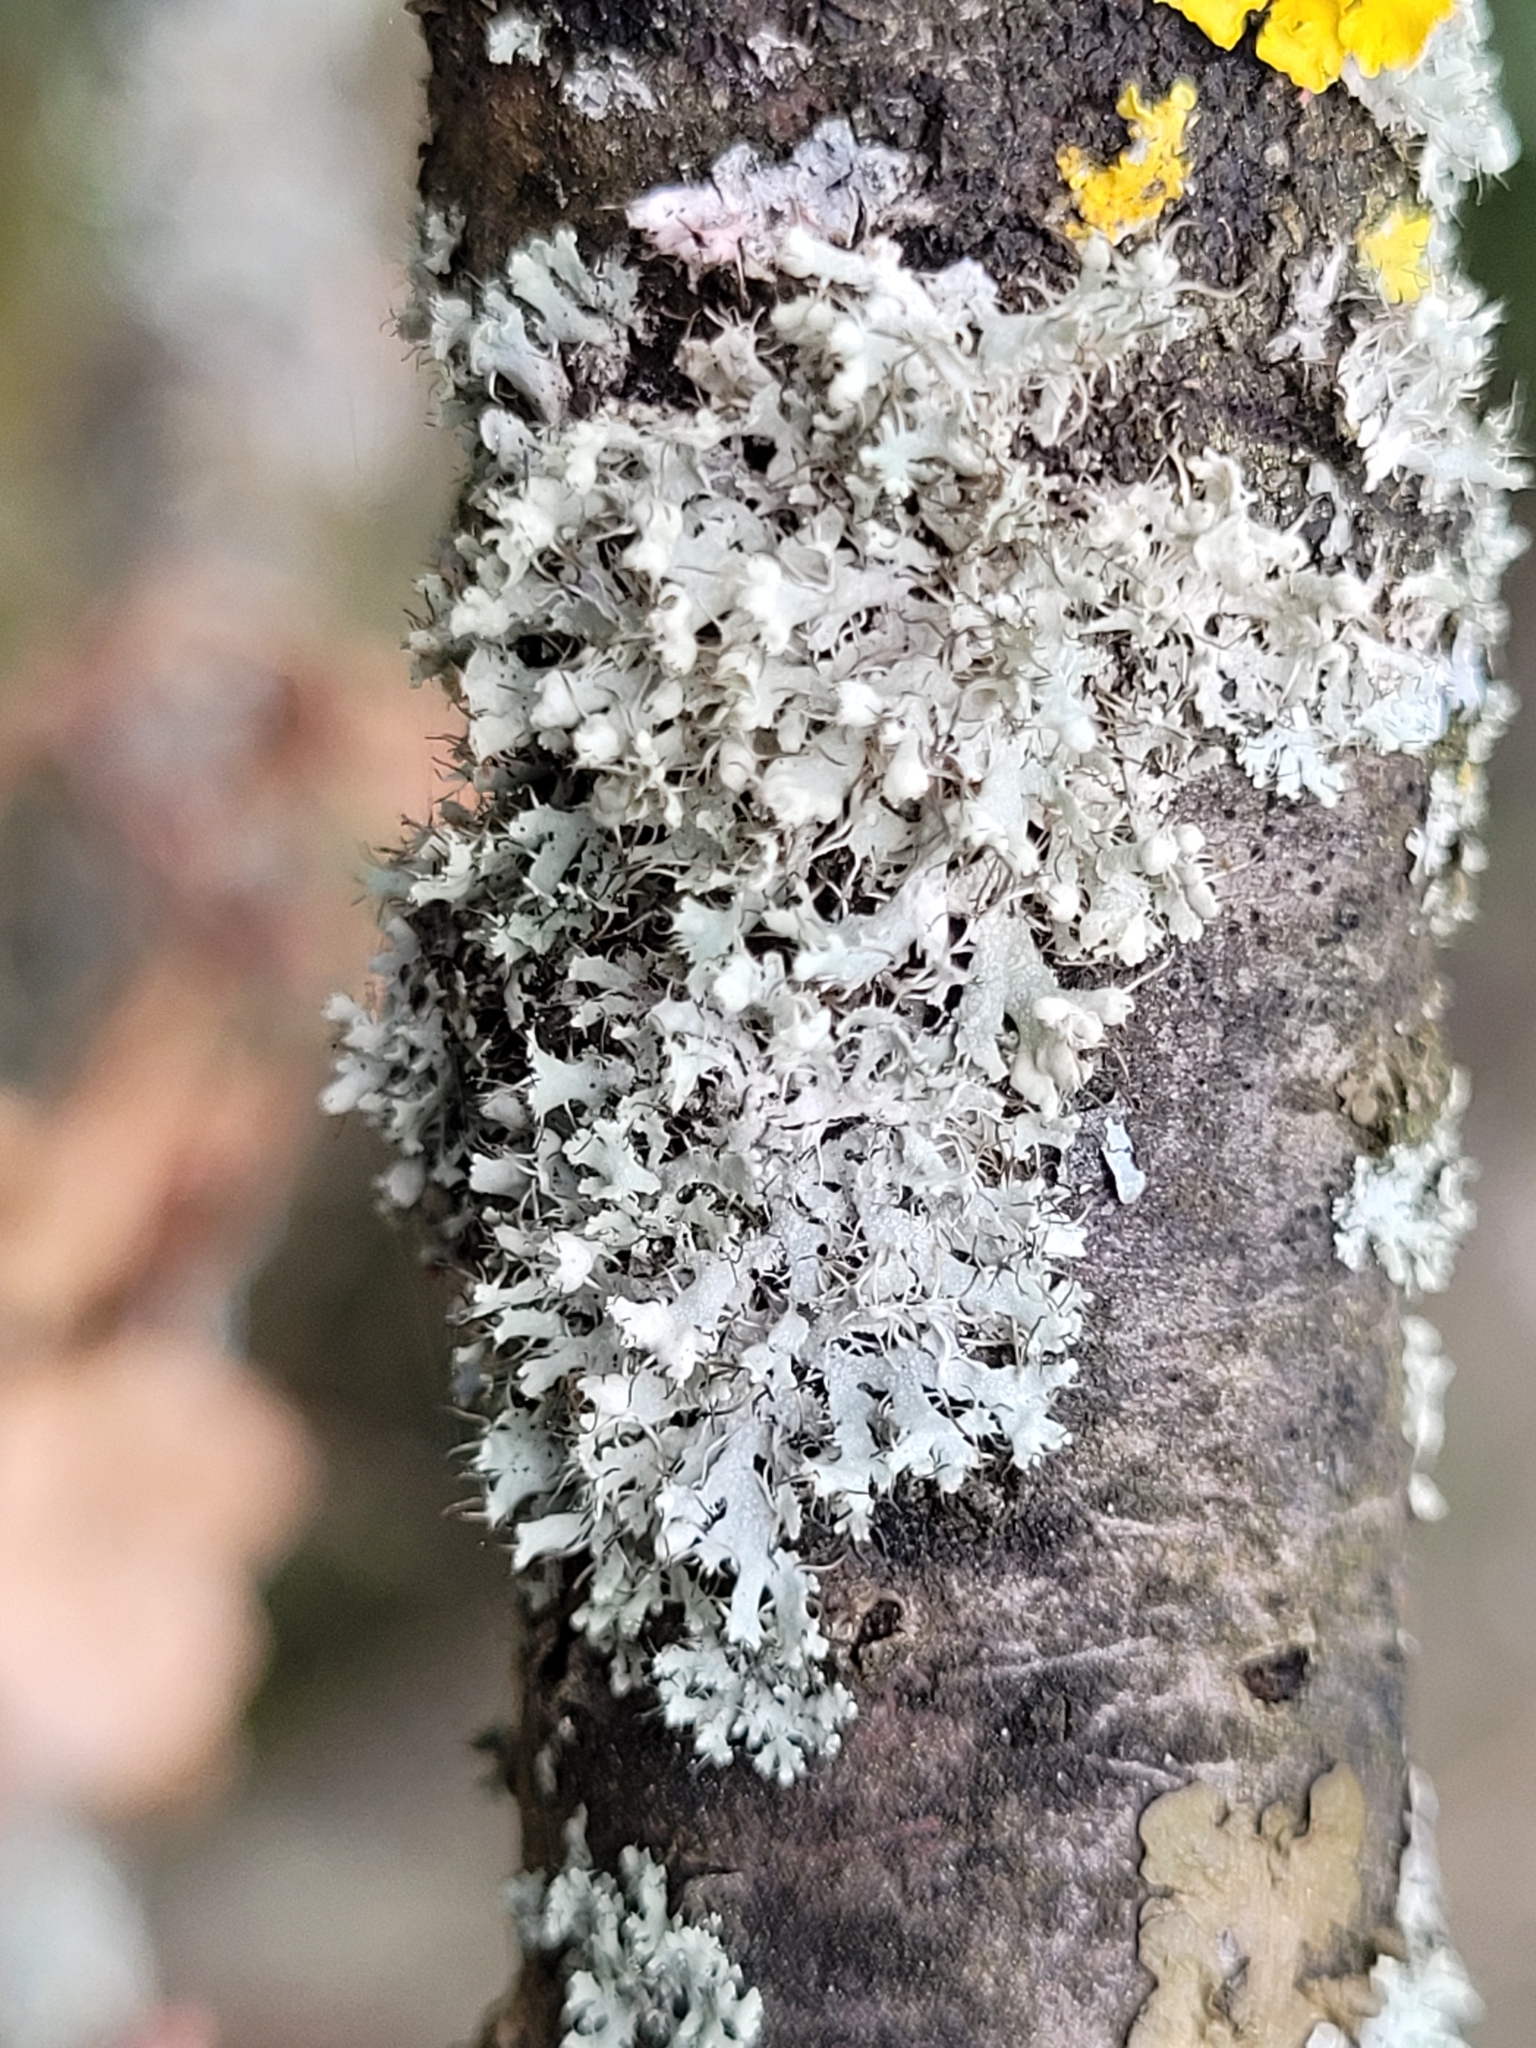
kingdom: Fungi
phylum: Ascomycota
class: Lecanoromycetes
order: Caliciales
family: Physciaceae
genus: Physcia
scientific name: Physcia adscendens
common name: Hooded rosette lichen
